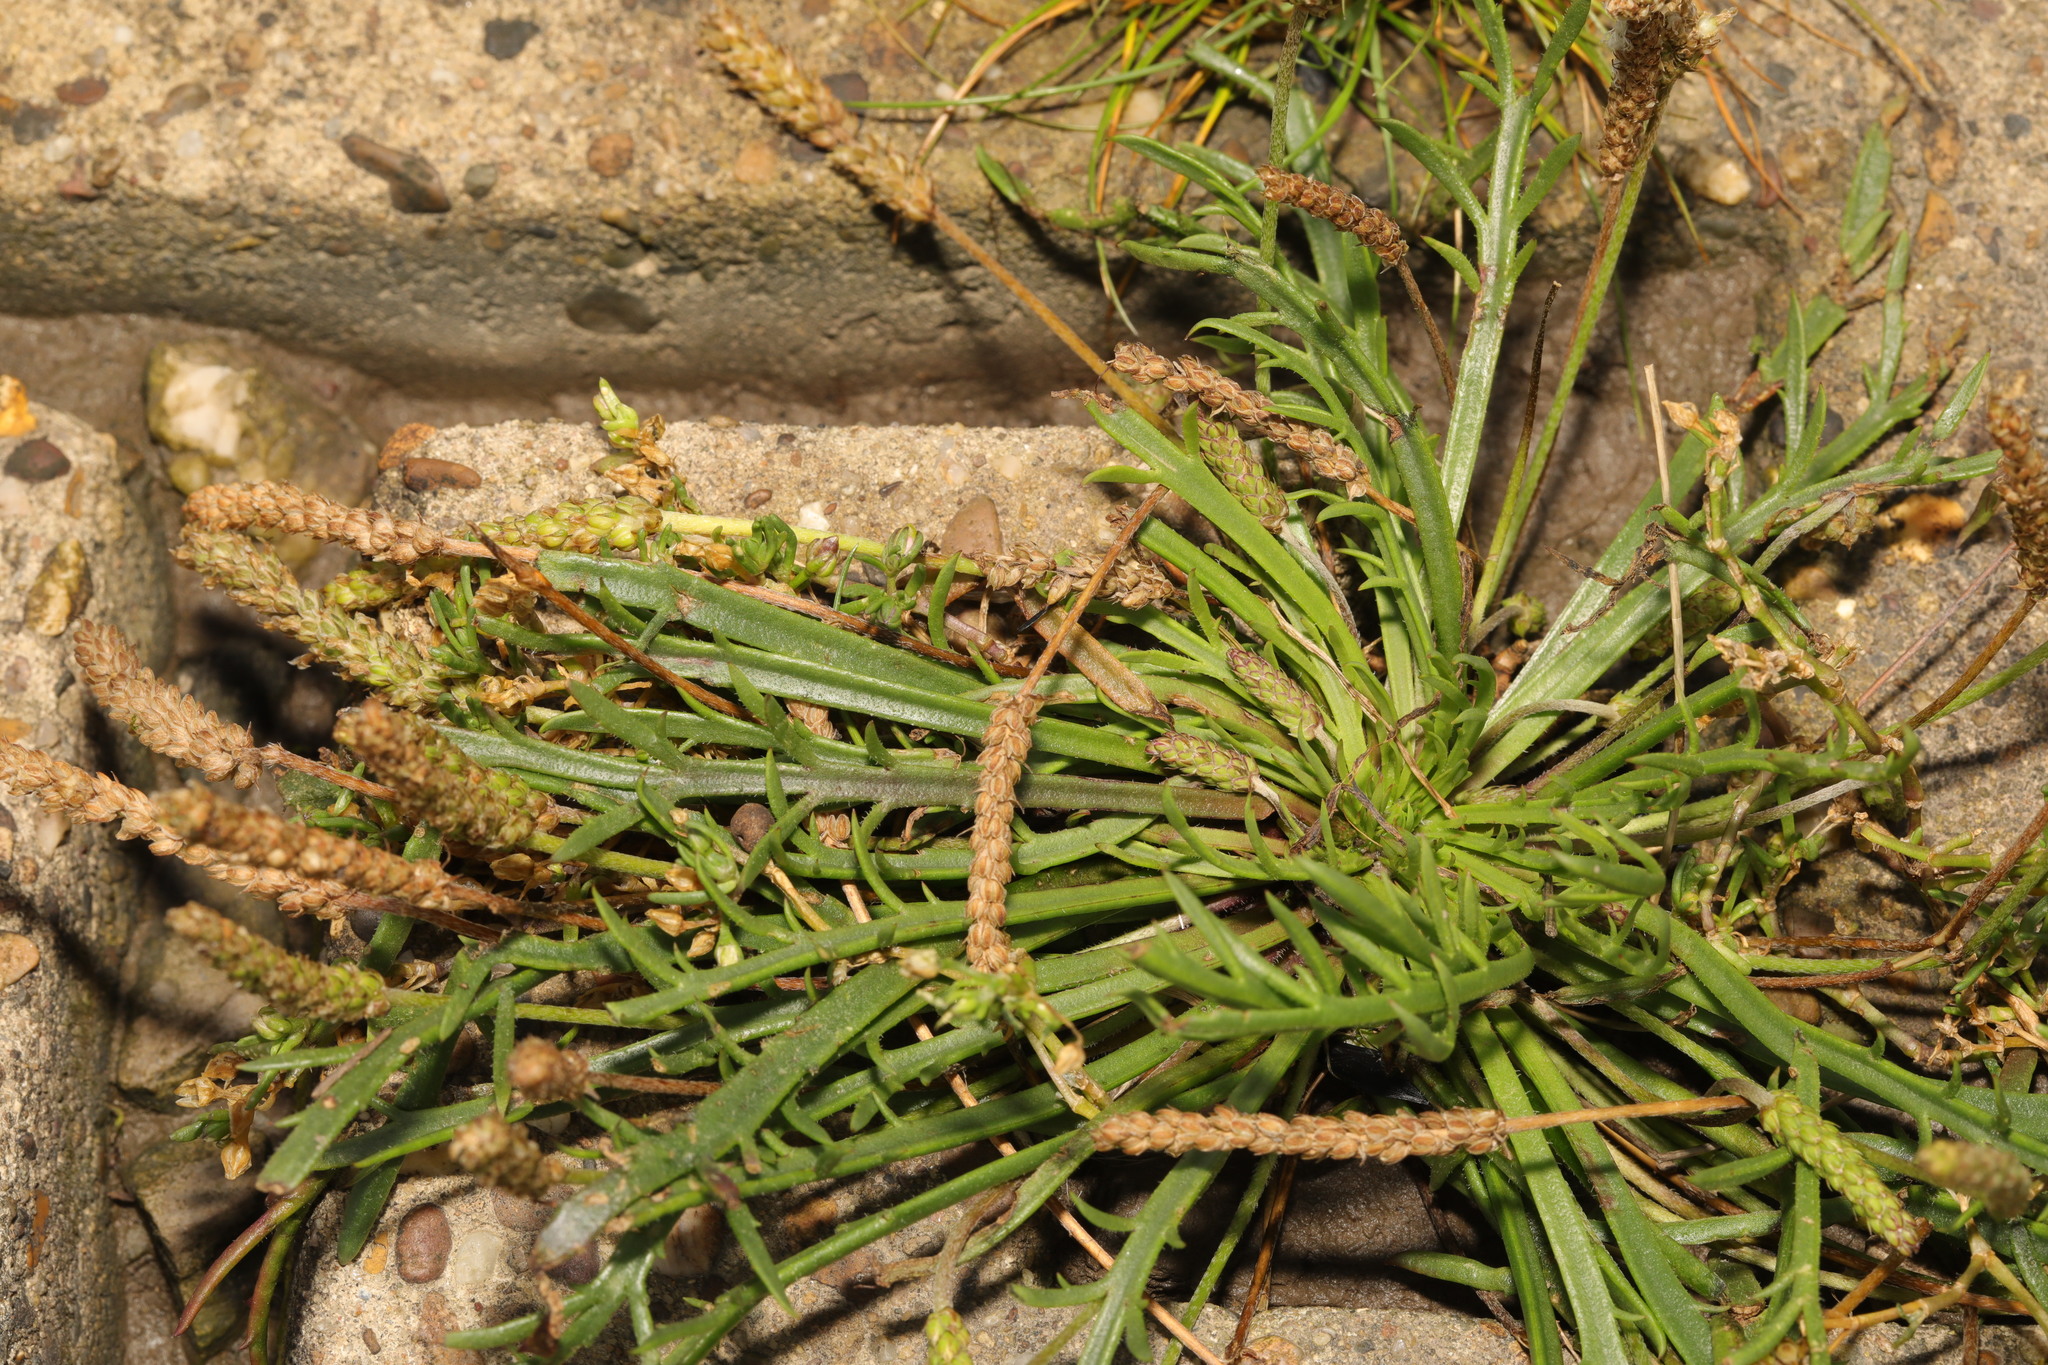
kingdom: Plantae
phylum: Tracheophyta
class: Magnoliopsida
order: Lamiales
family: Plantaginaceae
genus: Plantago
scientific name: Plantago coronopus
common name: Buck's-horn plantain
